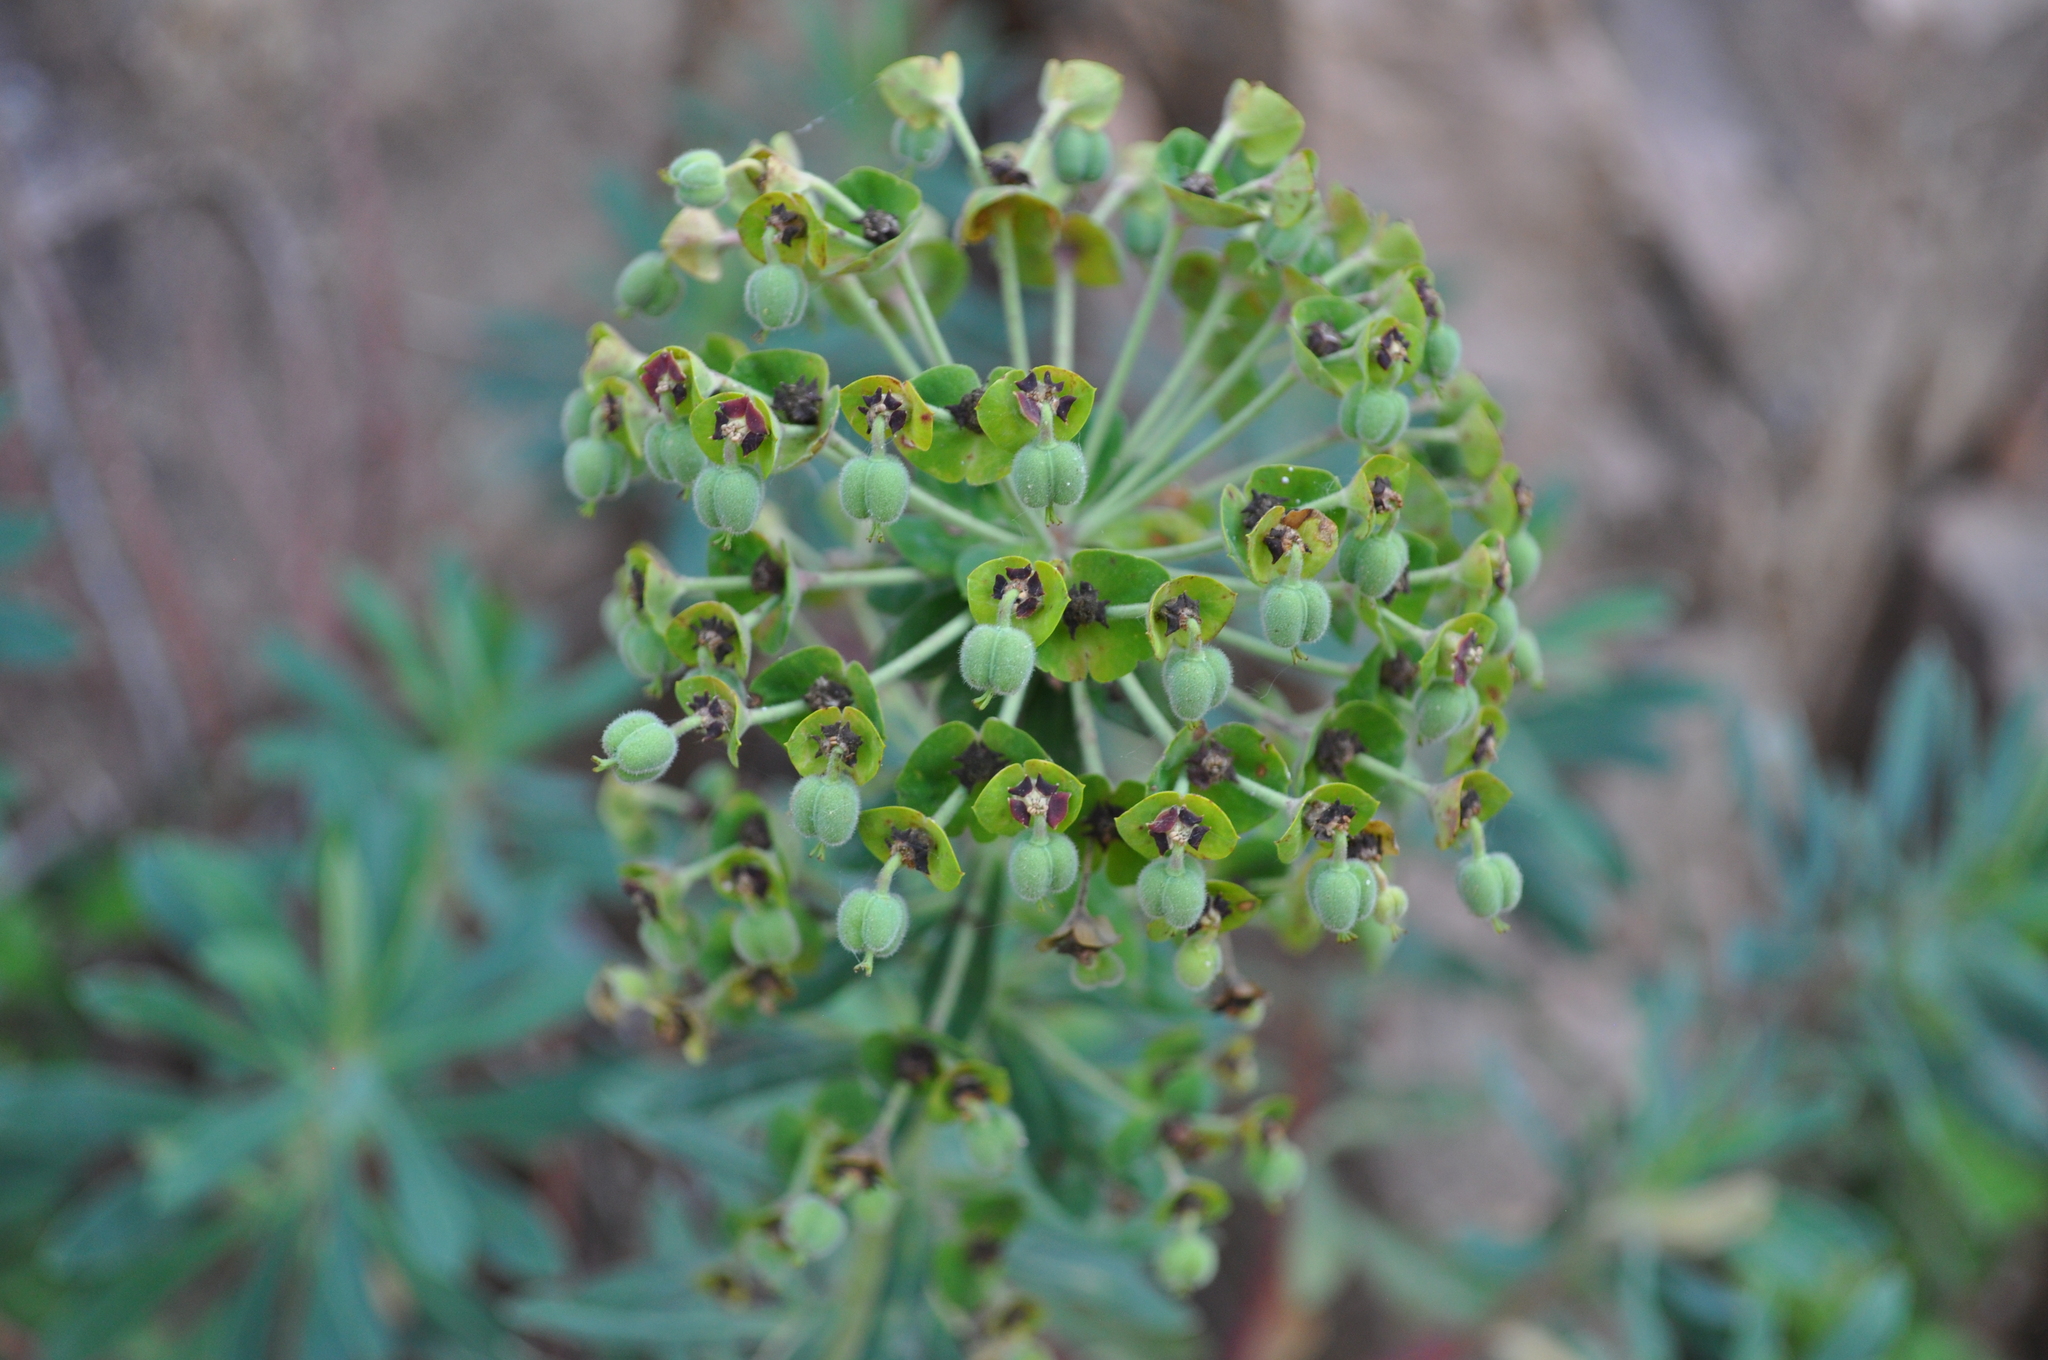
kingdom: Plantae
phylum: Tracheophyta
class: Magnoliopsida
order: Malpighiales
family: Euphorbiaceae
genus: Euphorbia
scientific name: Euphorbia characias
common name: Mediterranean spurge
